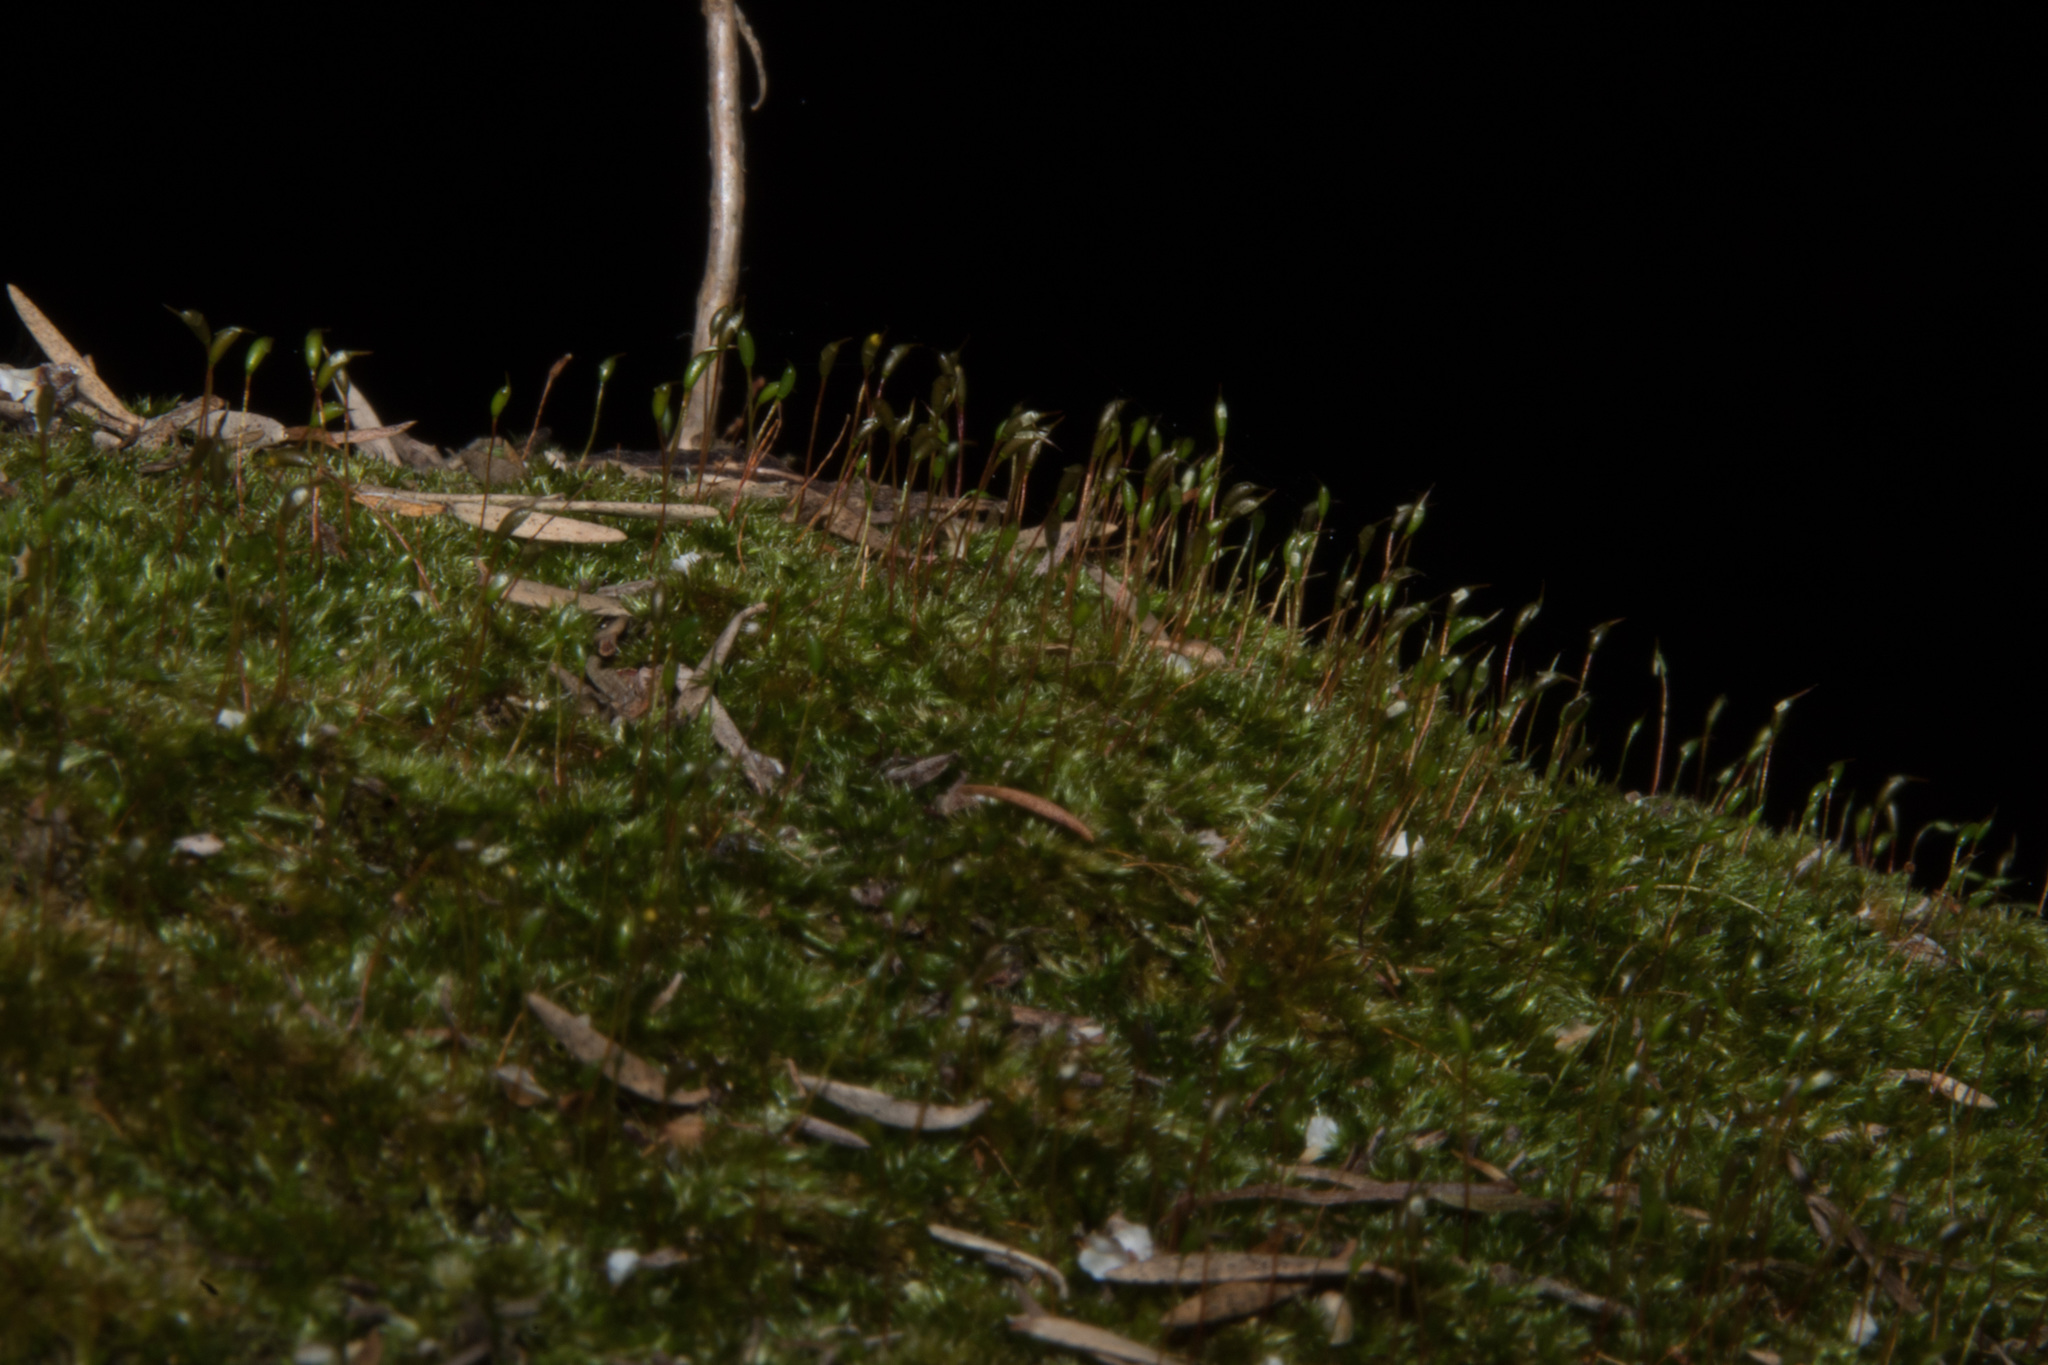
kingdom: Plantae
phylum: Bryophyta
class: Bryopsida
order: Hypnales
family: Sematophyllaceae
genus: Sematophyllum
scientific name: Sematophyllum homomallum
